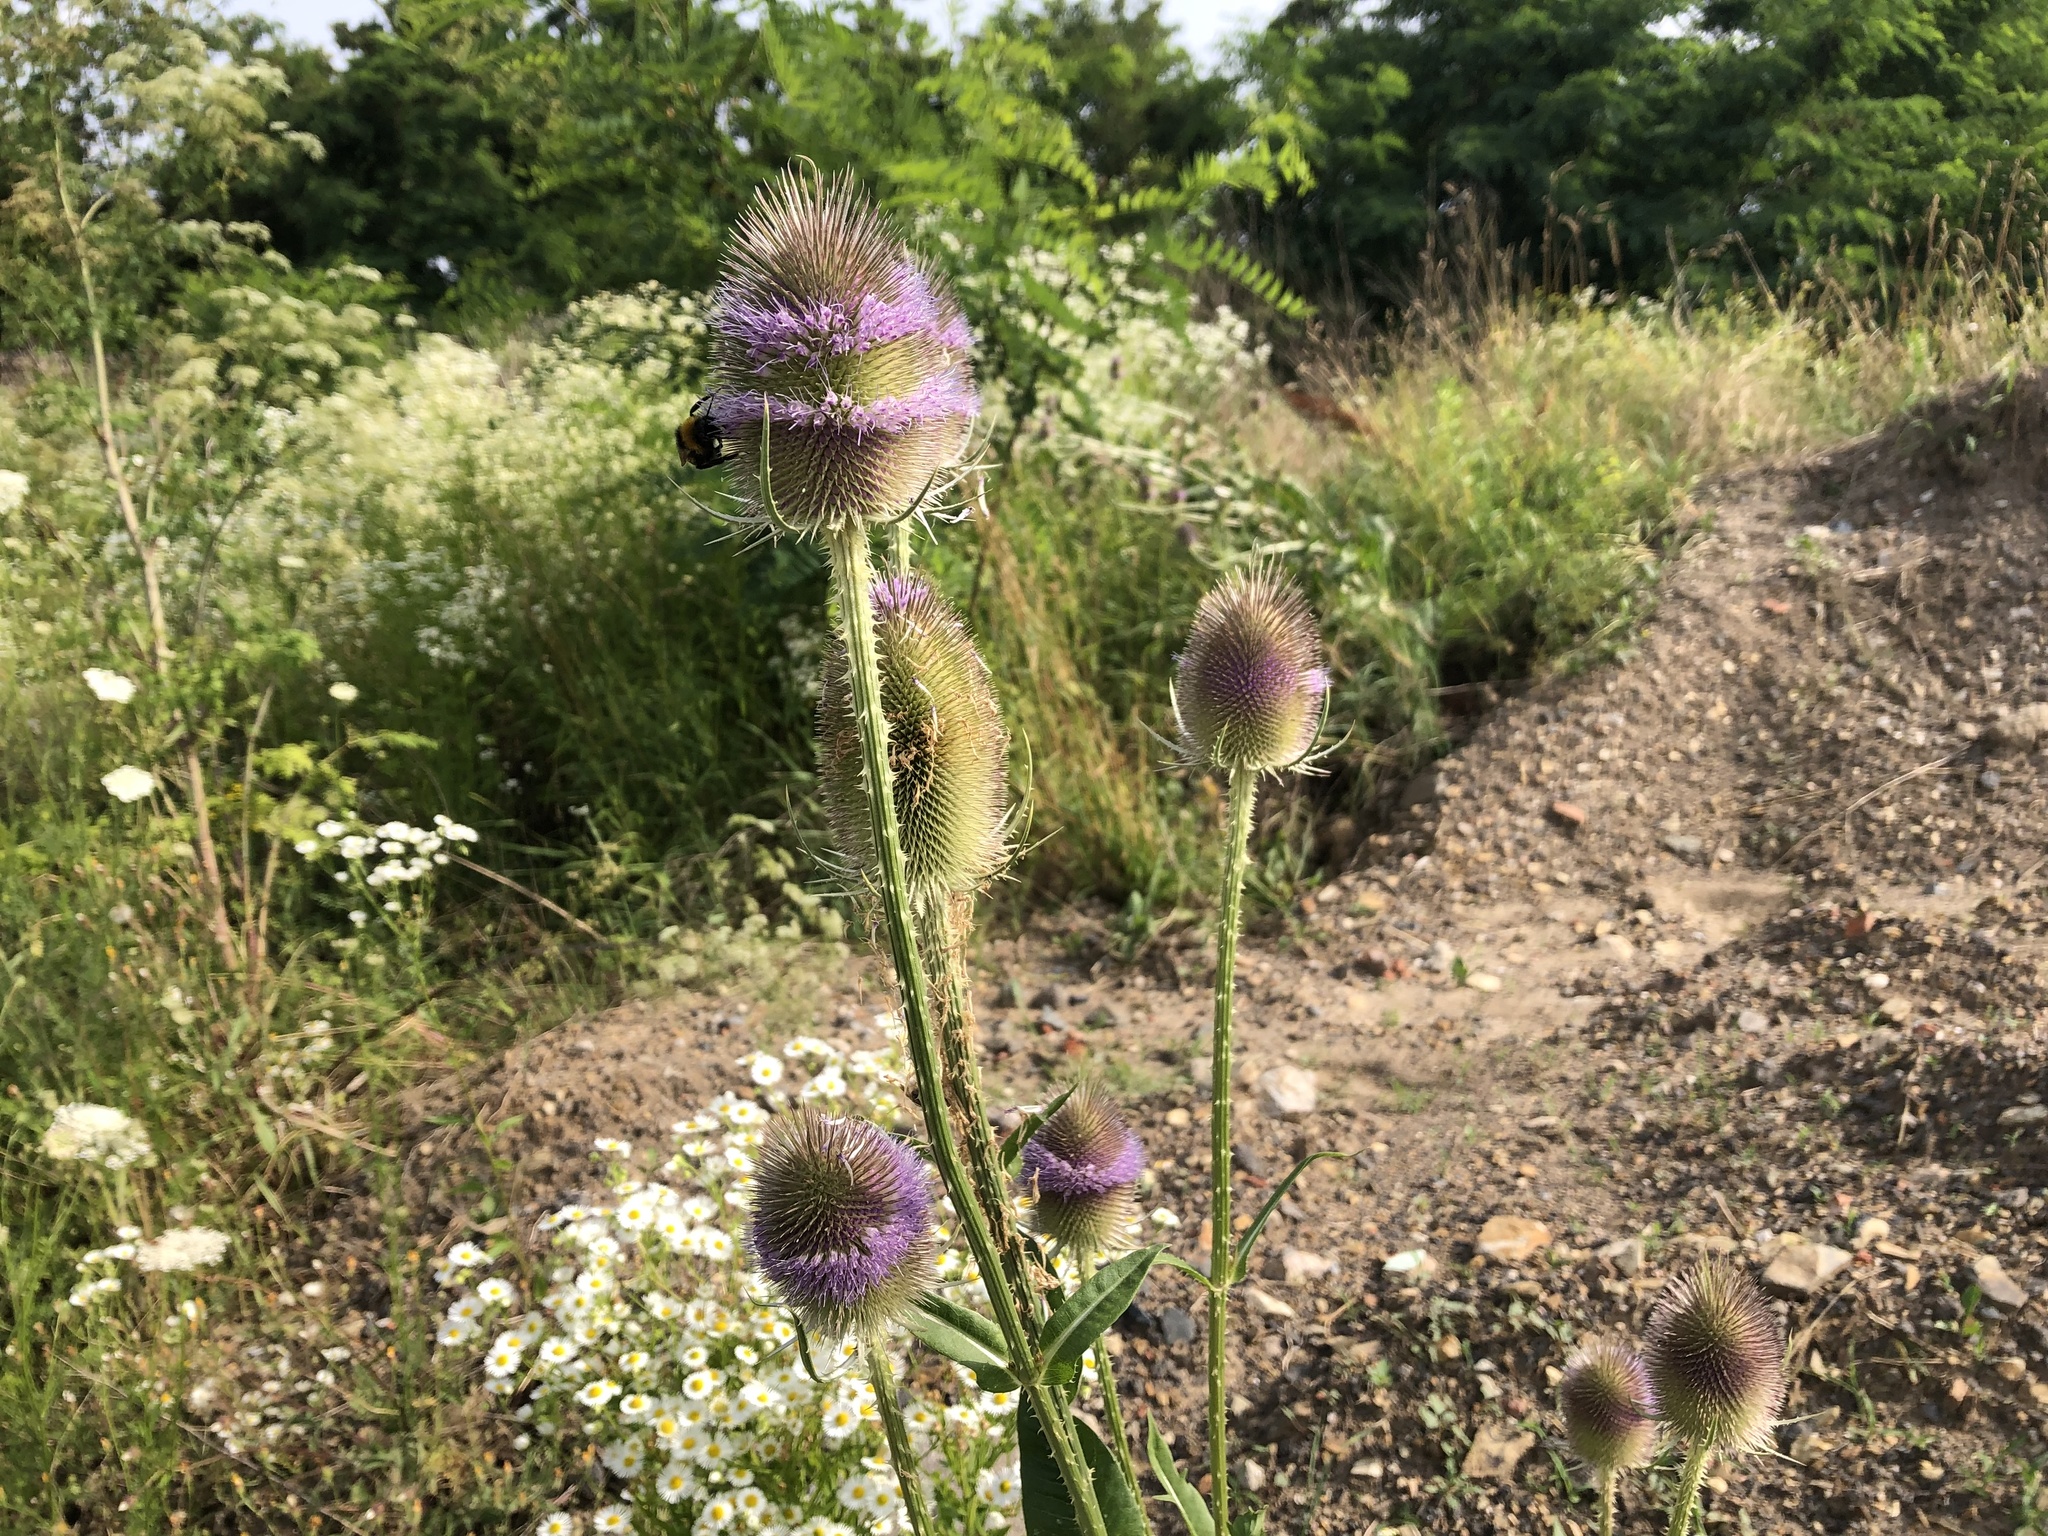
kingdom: Plantae
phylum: Tracheophyta
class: Magnoliopsida
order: Dipsacales
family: Caprifoliaceae
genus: Dipsacus
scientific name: Dipsacus fullonum
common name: Teasel
